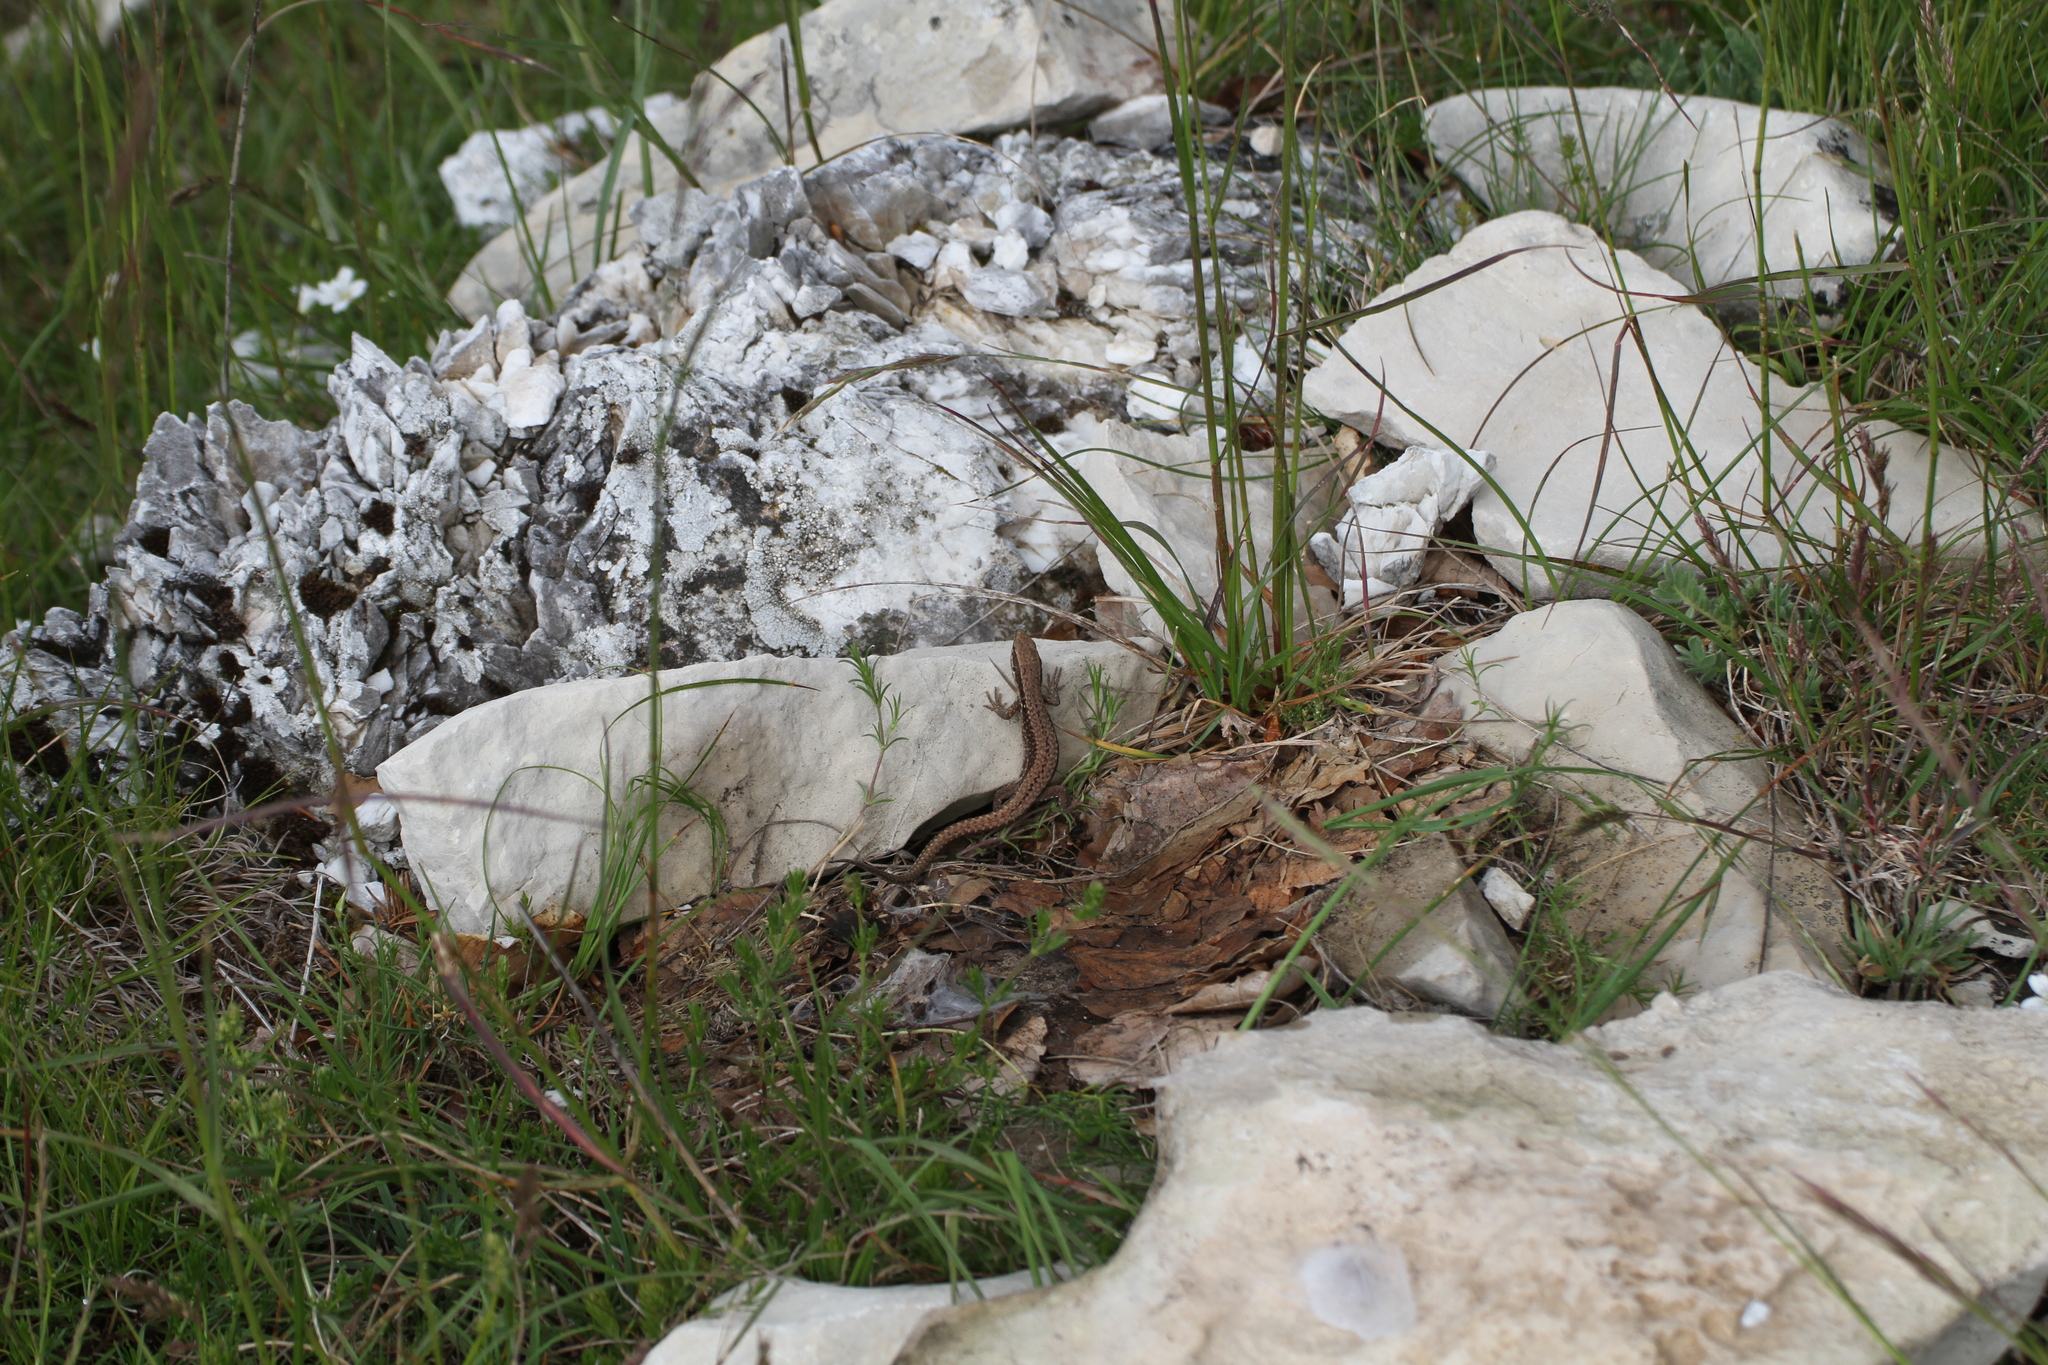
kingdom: Animalia
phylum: Chordata
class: Squamata
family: Lacertidae
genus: Podarcis
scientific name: Podarcis muralis
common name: Common wall lizard
